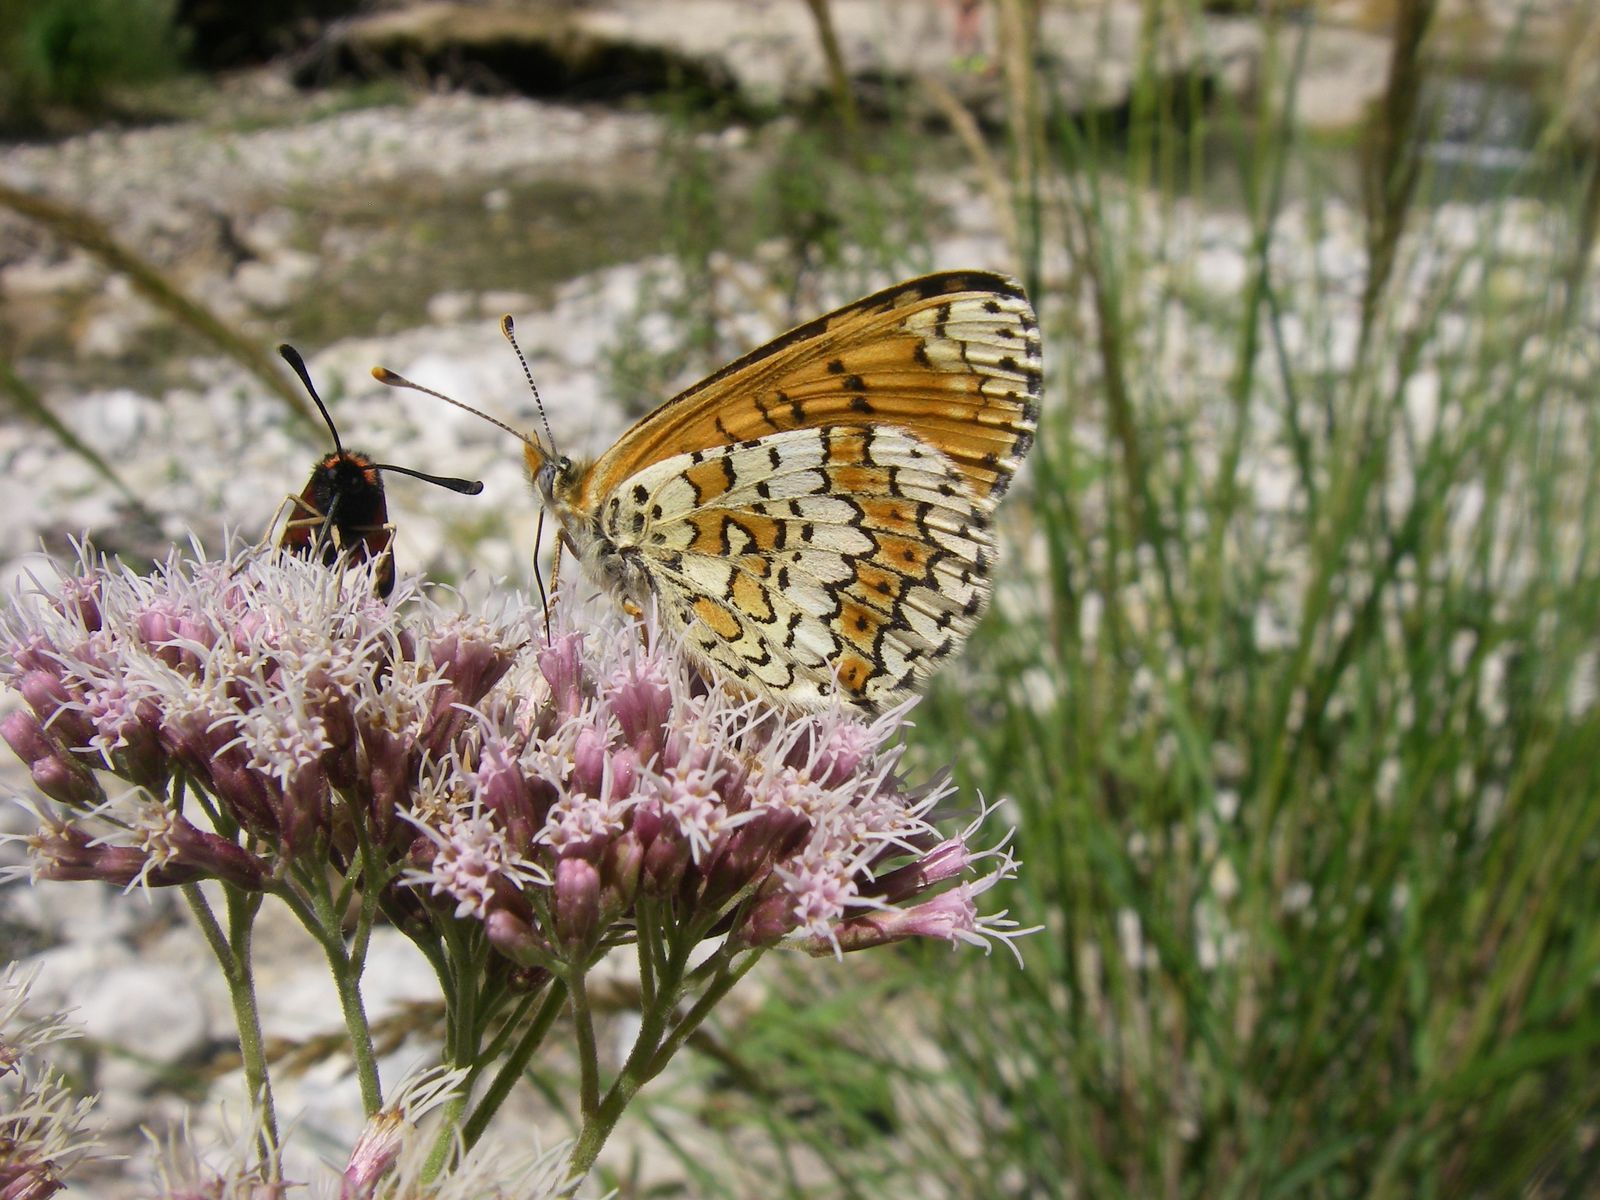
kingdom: Animalia
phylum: Arthropoda
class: Insecta
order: Lepidoptera
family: Nymphalidae
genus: Melitaea
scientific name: Melitaea cinxia
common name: Glanville fritillary
